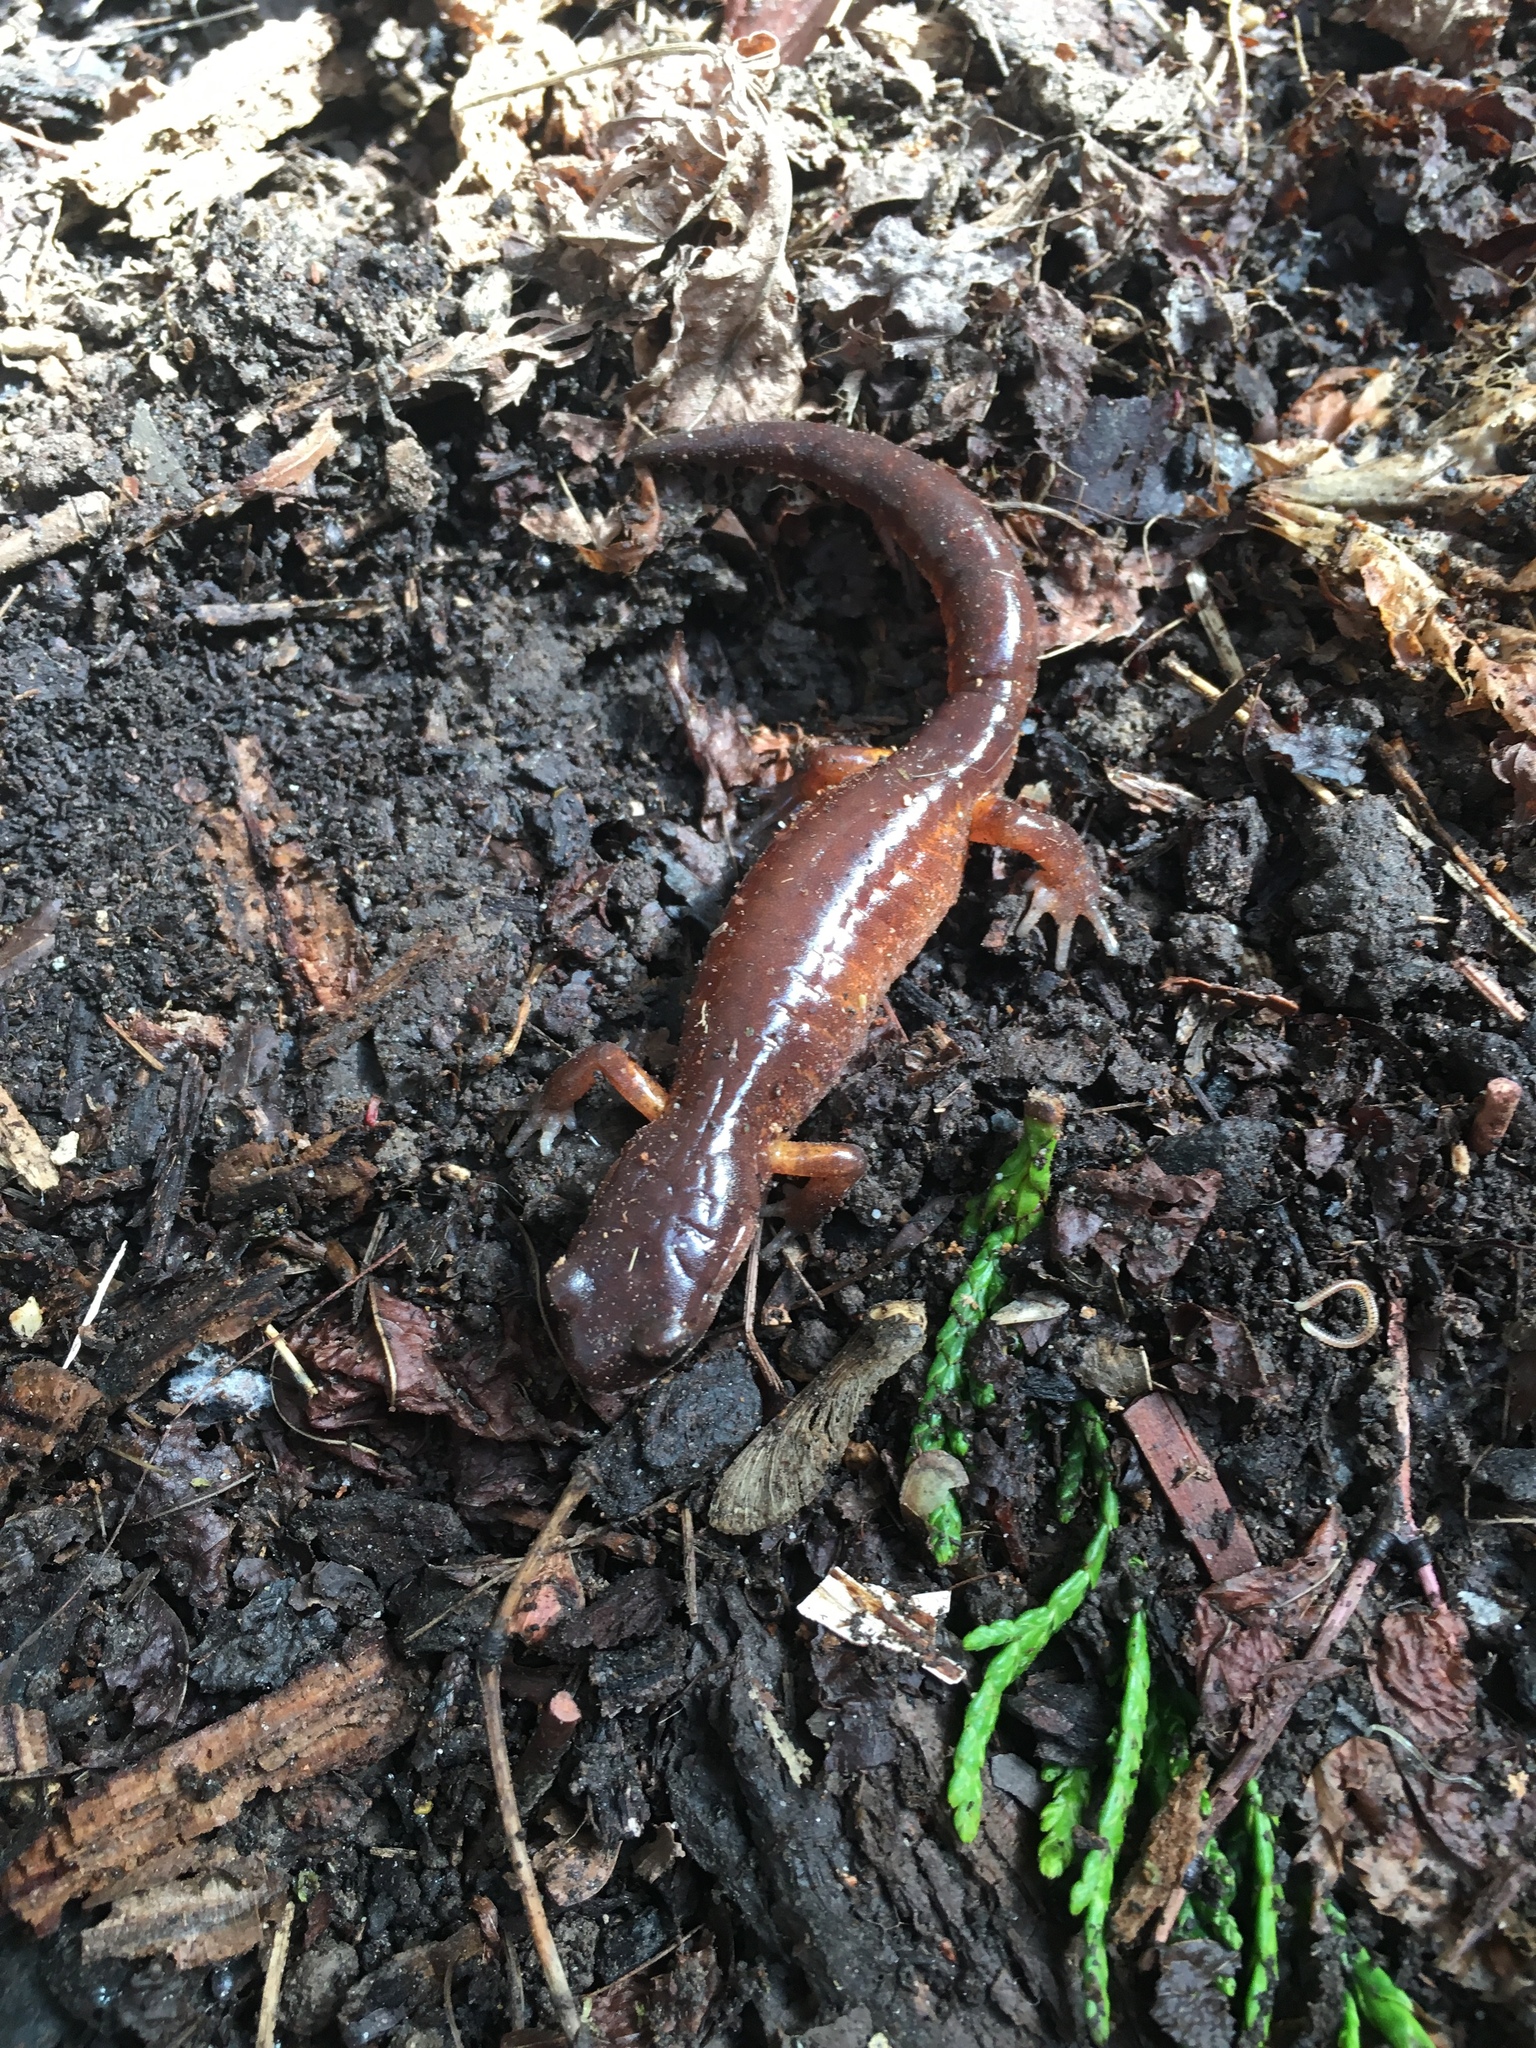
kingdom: Animalia
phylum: Chordata
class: Amphibia
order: Caudata
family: Plethodontidae
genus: Ensatina
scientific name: Ensatina eschscholtzii
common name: Ensatina
